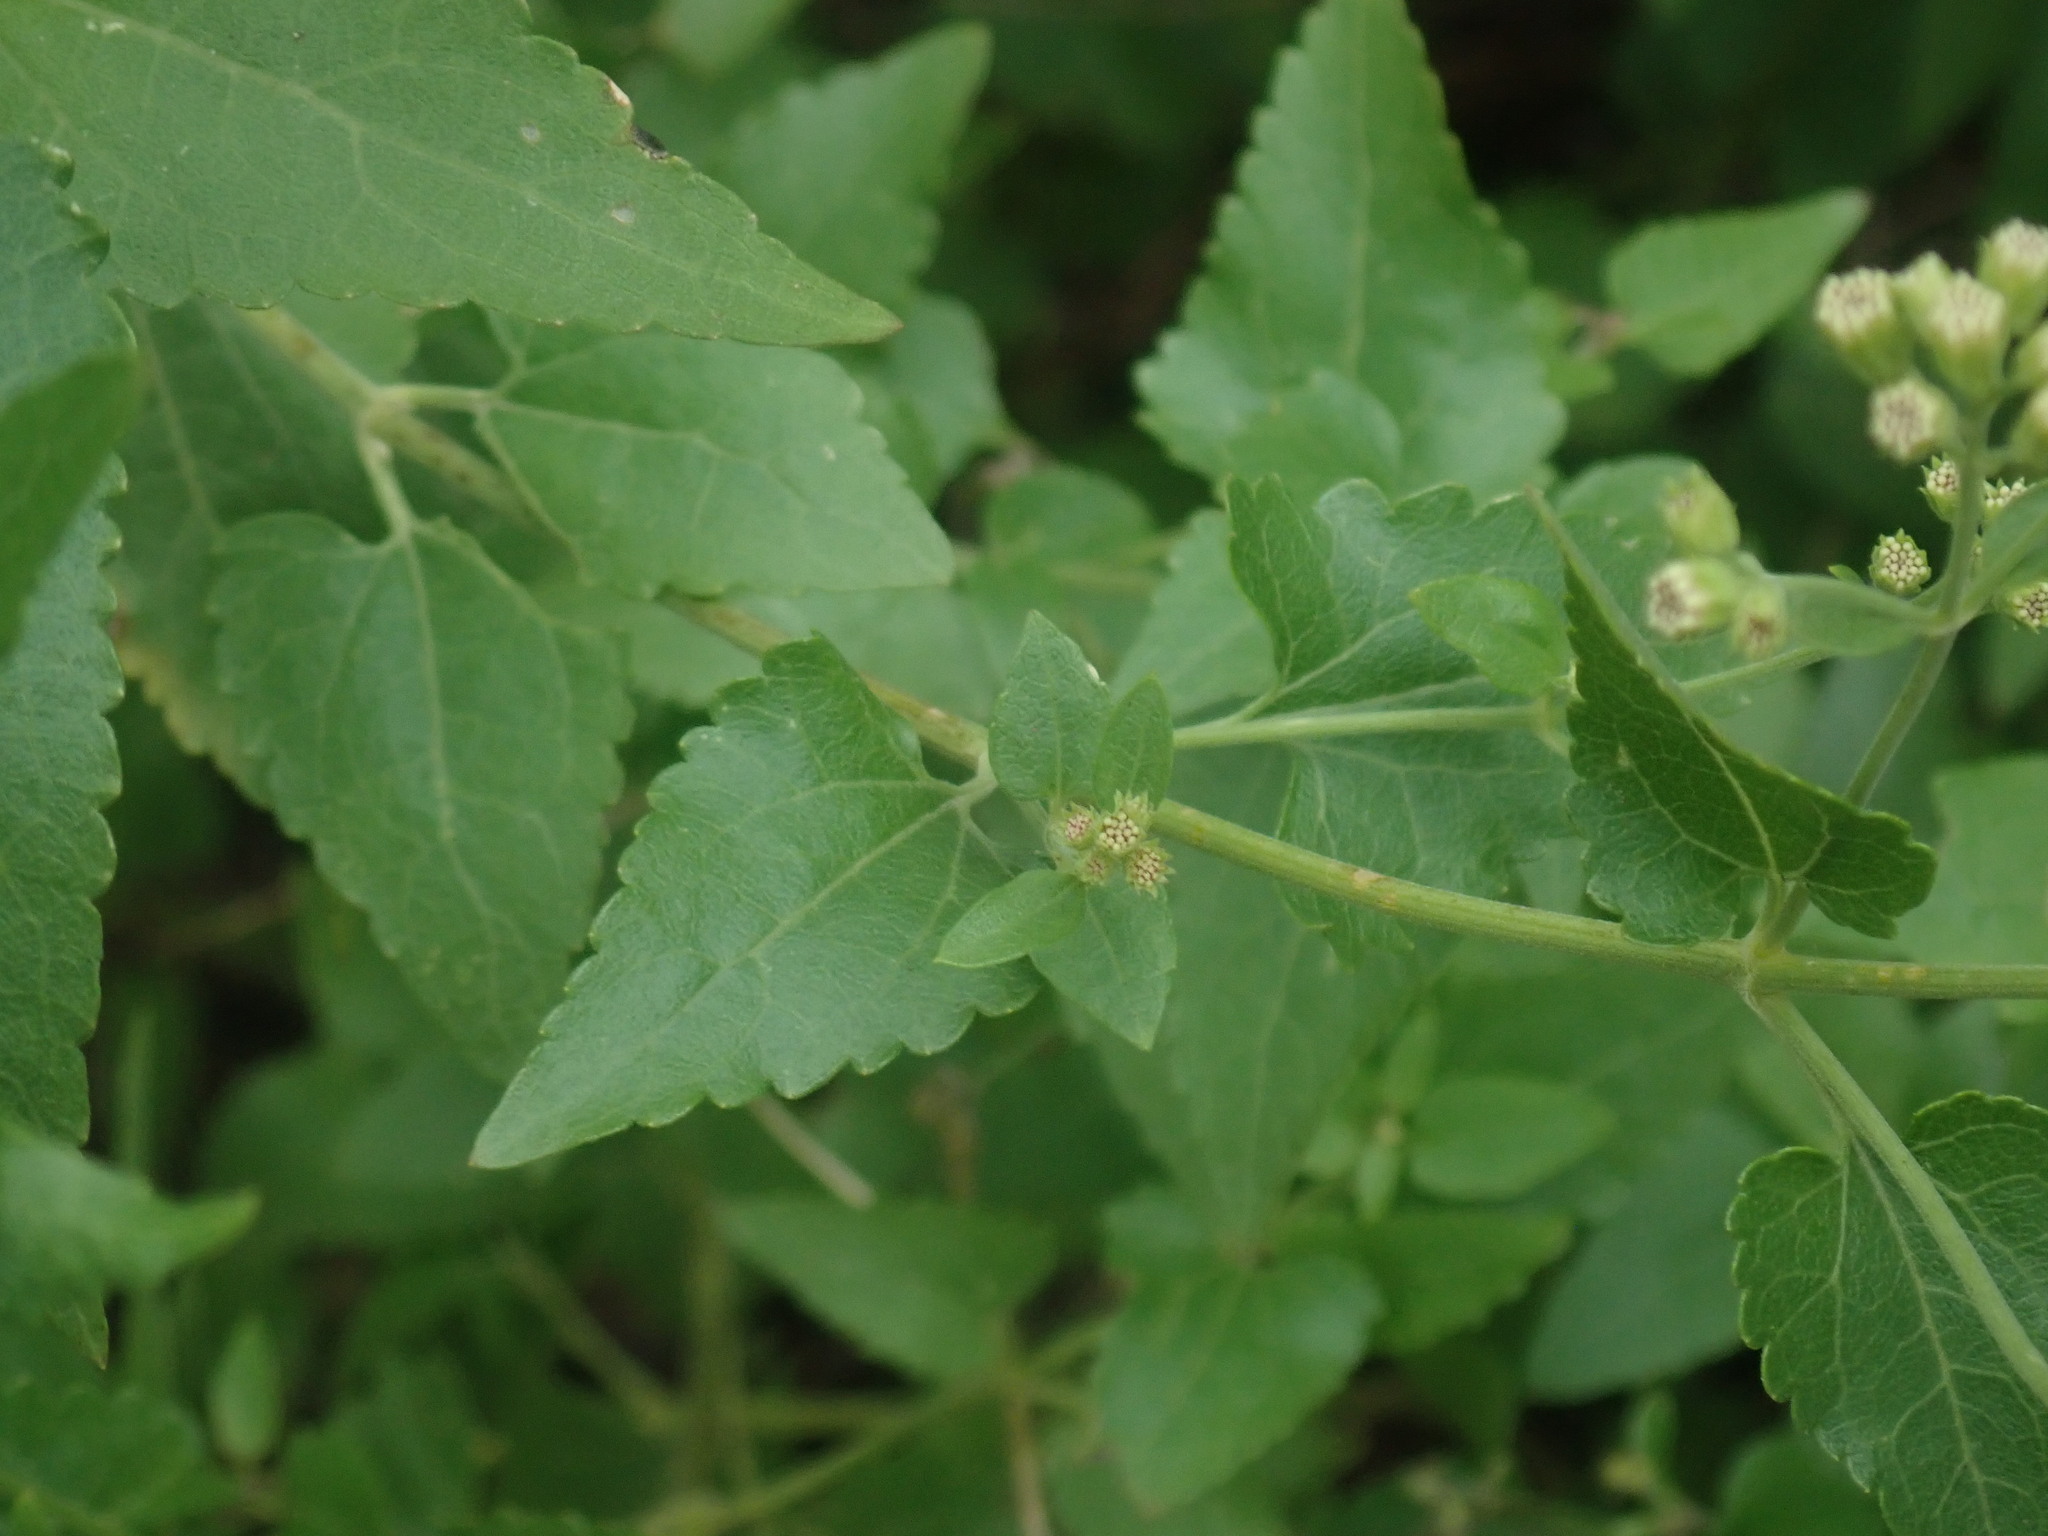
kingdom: Plantae
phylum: Tracheophyta
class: Magnoliopsida
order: Asterales
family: Asteraceae
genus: Ageratina
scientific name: Ageratina herbacea
